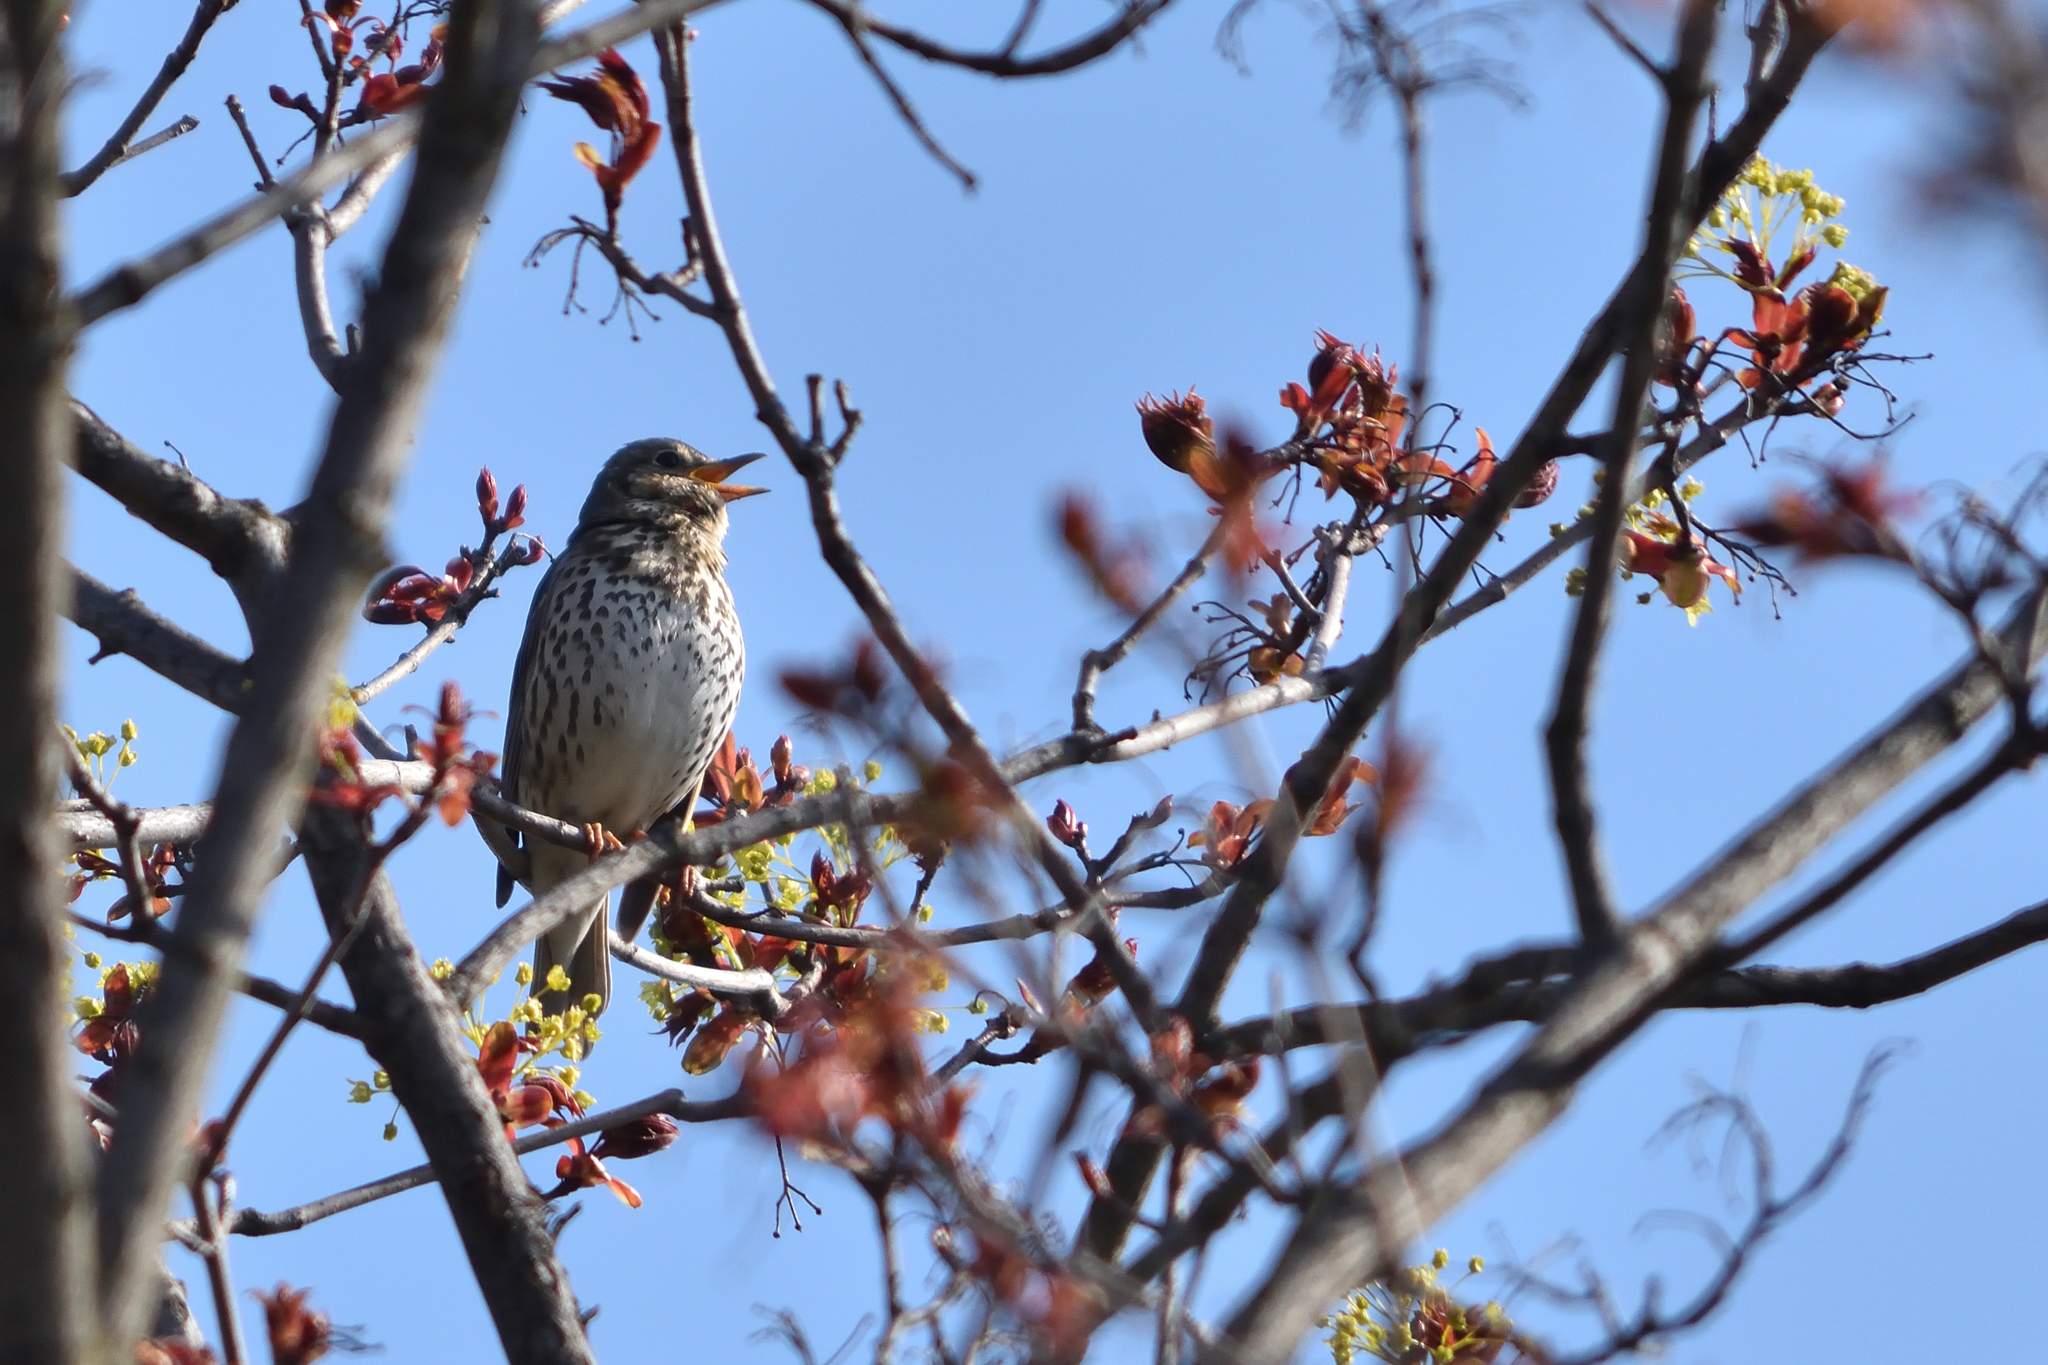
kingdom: Animalia
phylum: Chordata
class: Aves
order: Passeriformes
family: Turdidae
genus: Turdus
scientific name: Turdus philomelos
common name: Song thrush
